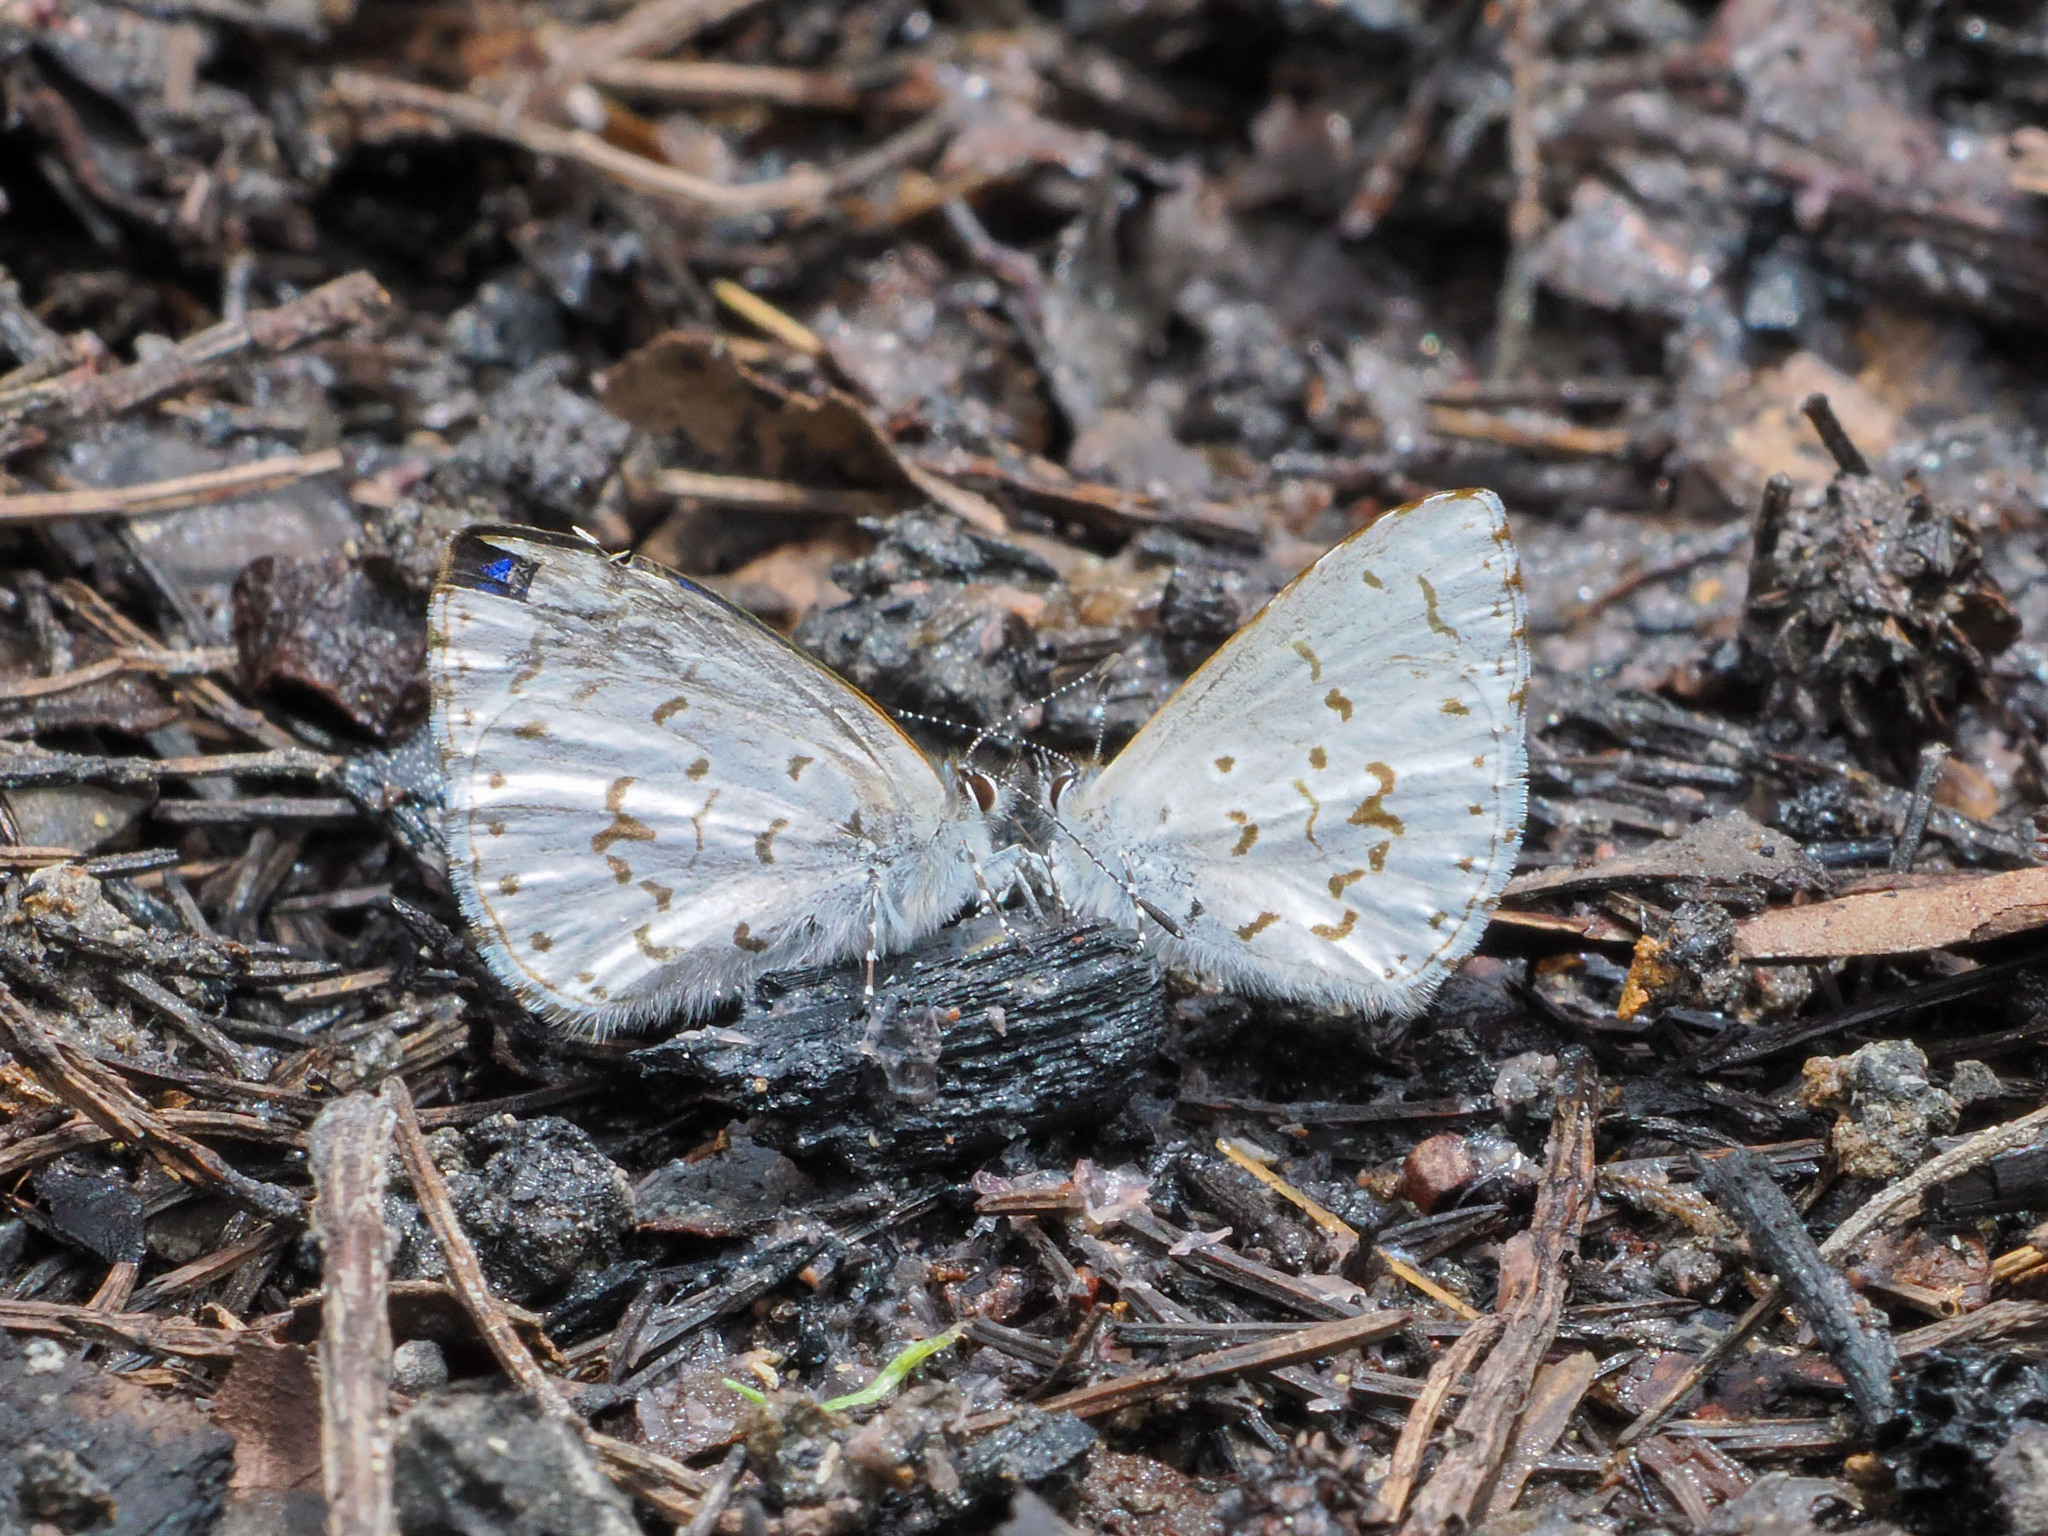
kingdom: Animalia
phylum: Arthropoda
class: Insecta
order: Lepidoptera
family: Lycaenidae
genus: Udara
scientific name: Udara drucei
